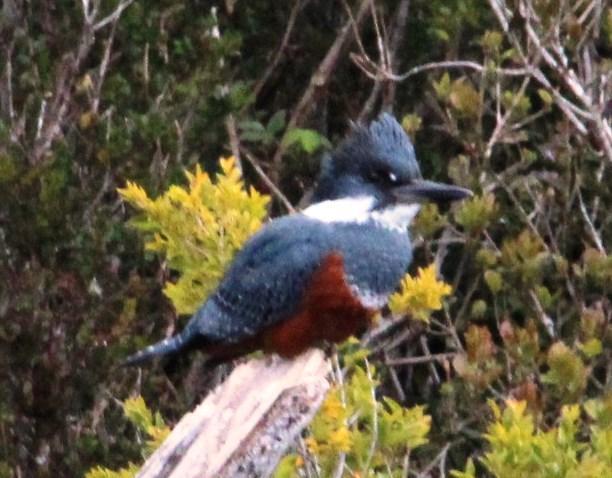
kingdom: Animalia
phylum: Chordata
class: Aves
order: Coraciiformes
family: Alcedinidae
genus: Megaceryle
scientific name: Megaceryle torquata
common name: Ringed kingfisher
